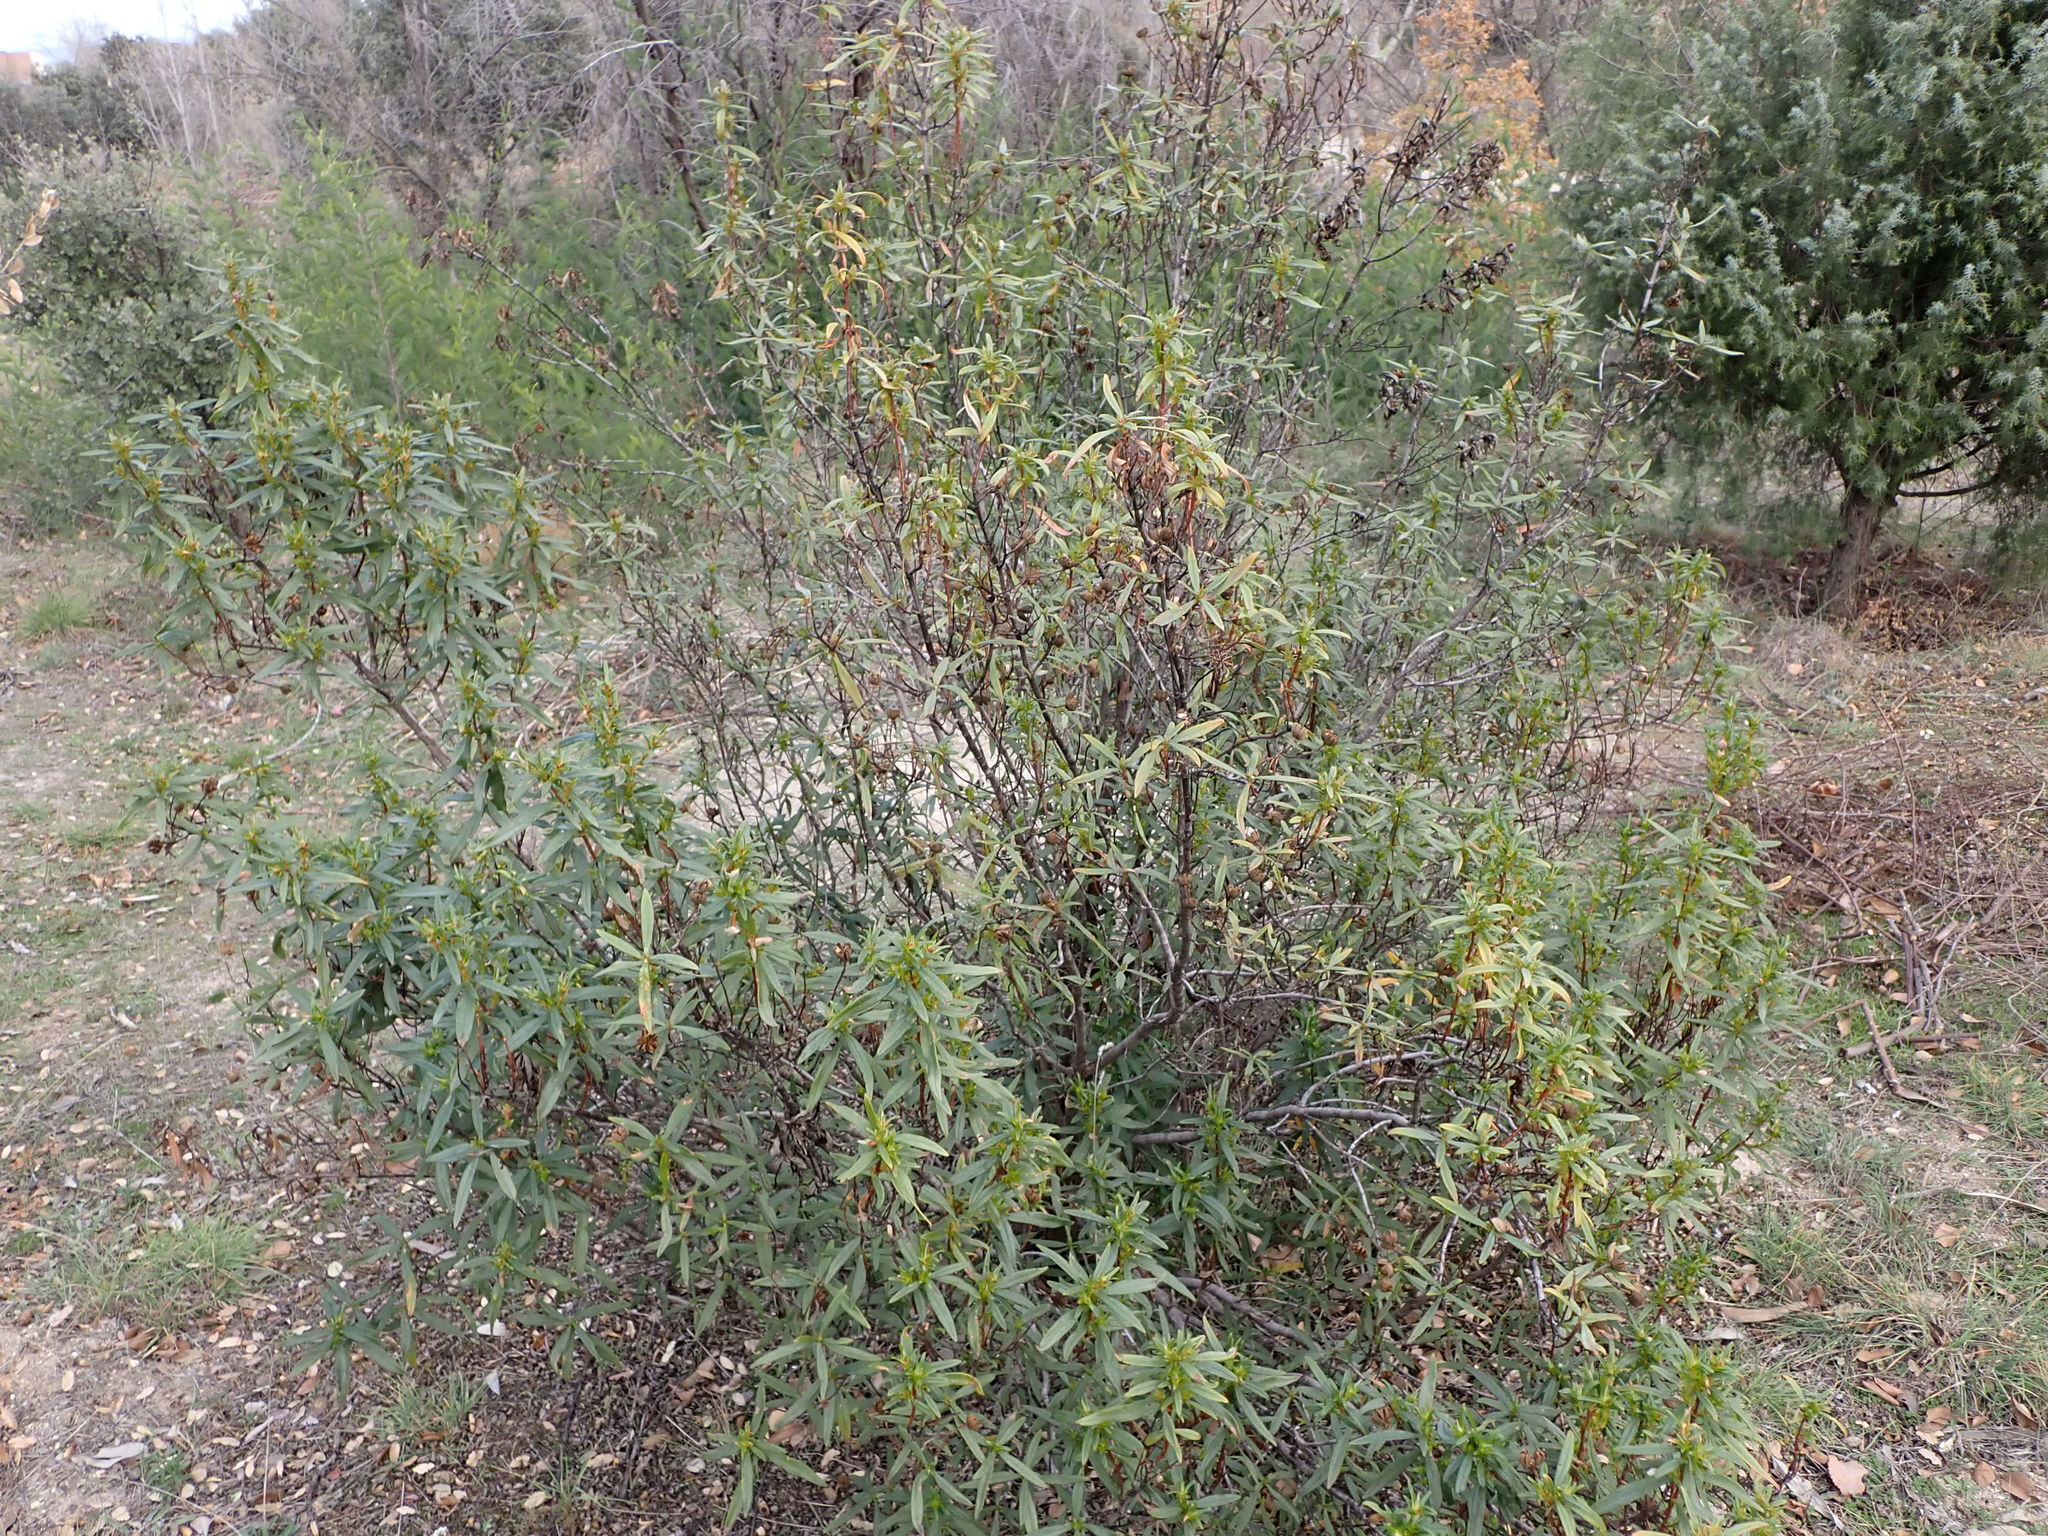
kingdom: Plantae
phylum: Tracheophyta
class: Magnoliopsida
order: Malvales
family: Cistaceae
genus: Cistus
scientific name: Cistus ladanifer
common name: Common gum cistus
